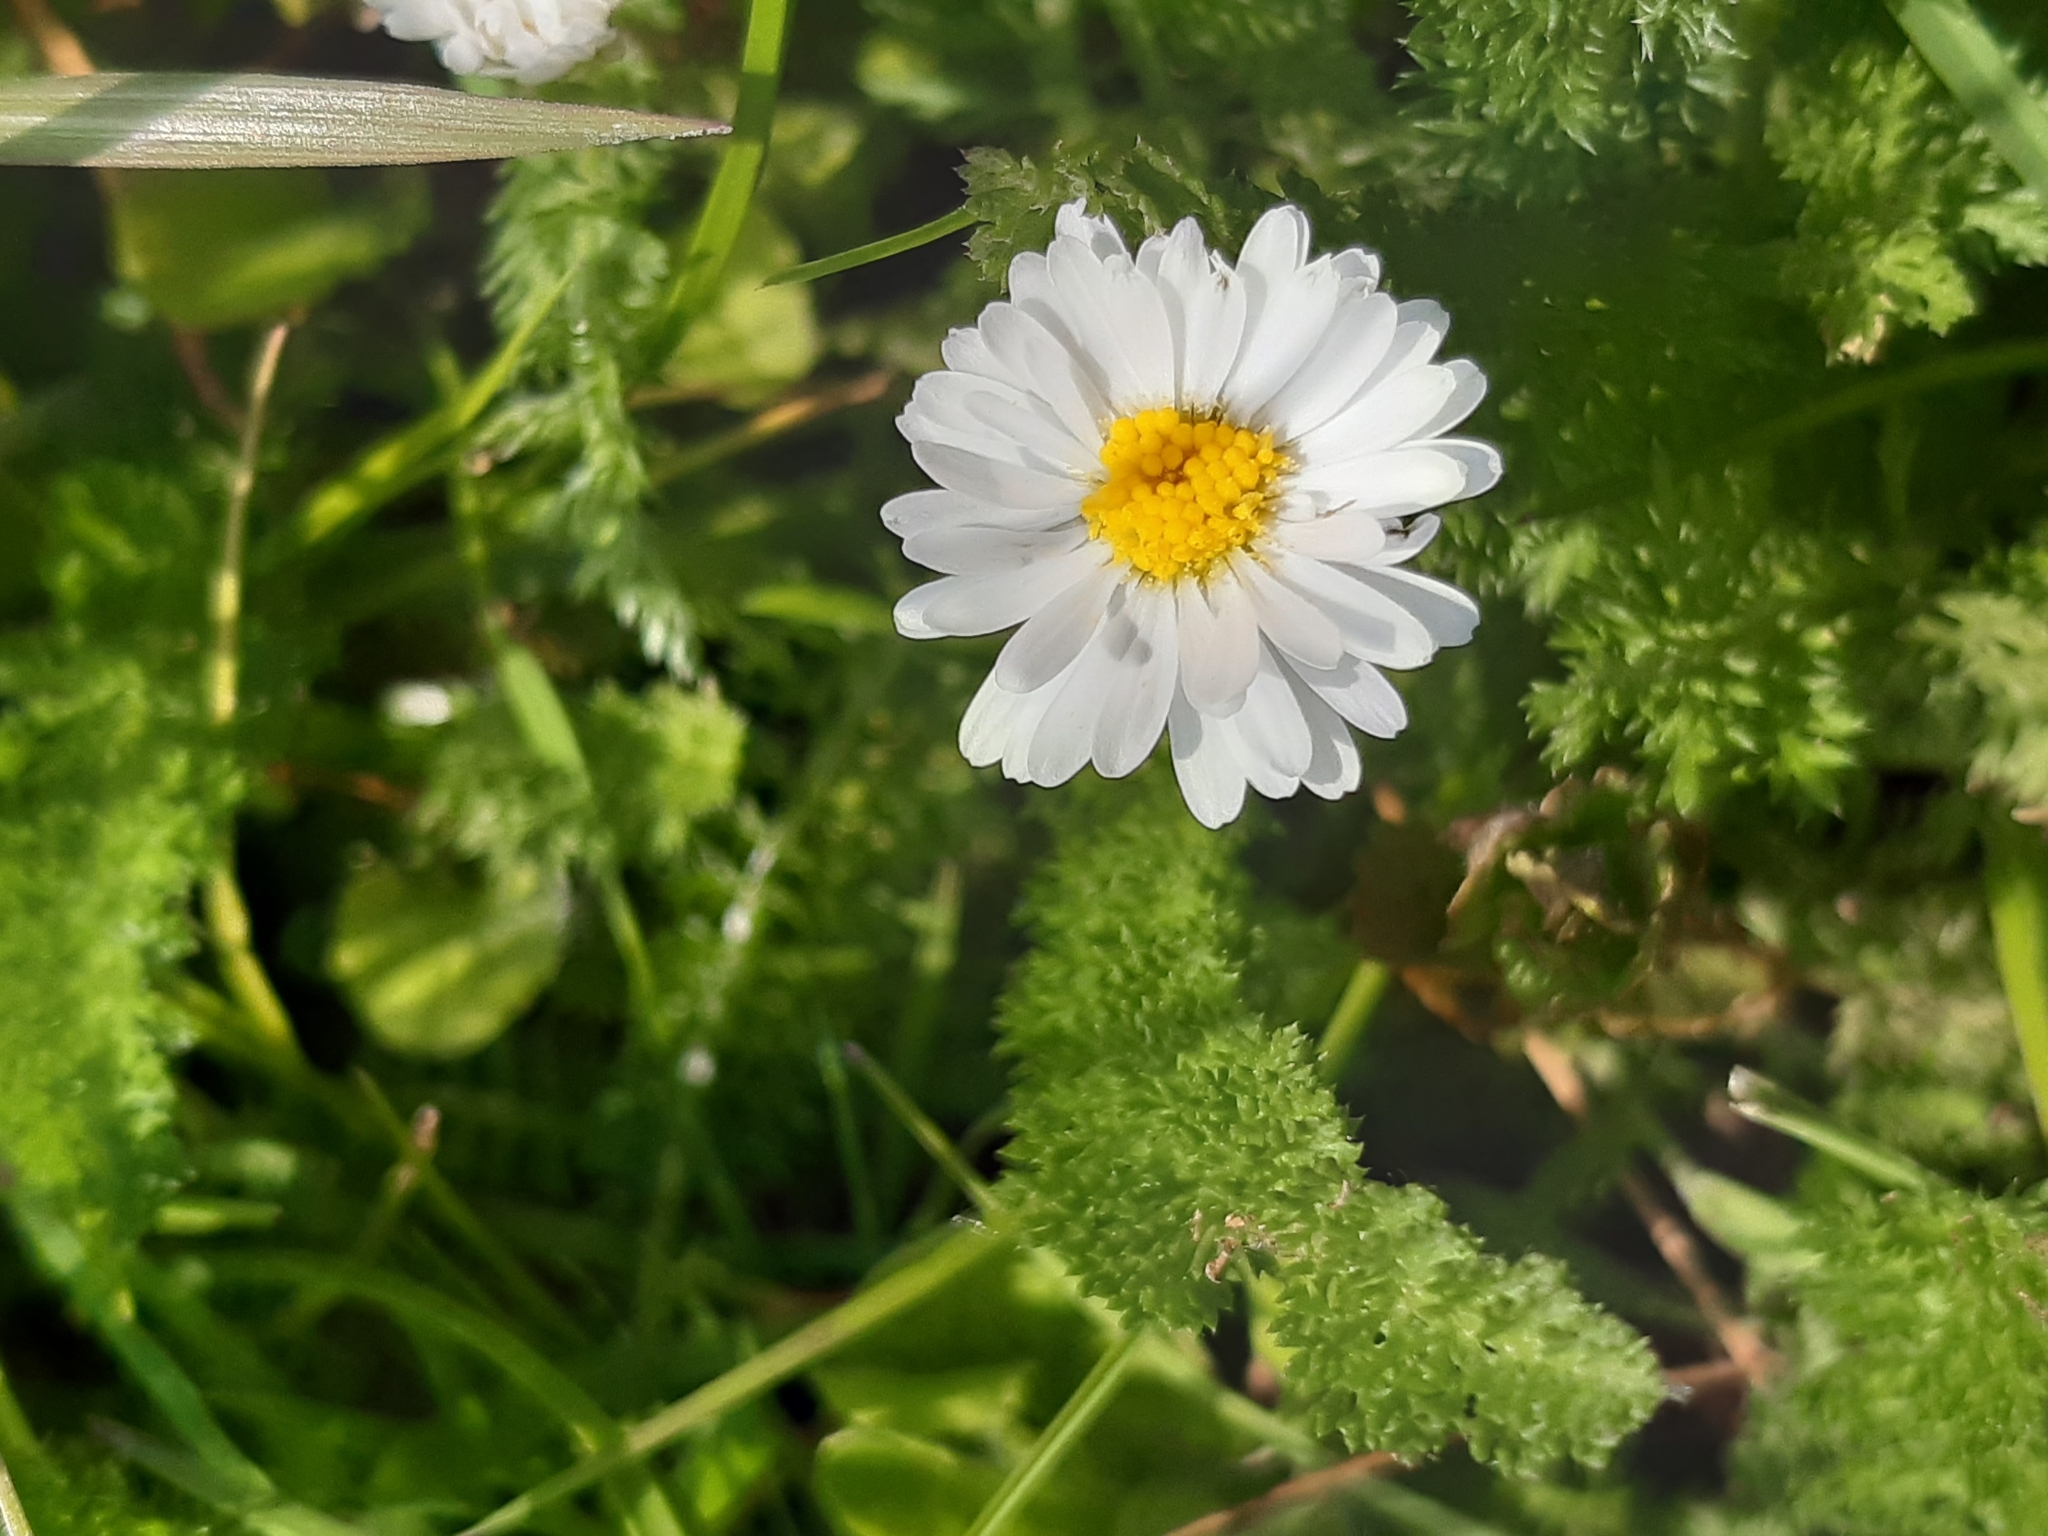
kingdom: Plantae
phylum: Tracheophyta
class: Magnoliopsida
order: Asterales
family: Asteraceae
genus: Bellis
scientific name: Bellis perennis
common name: Lawndaisy
